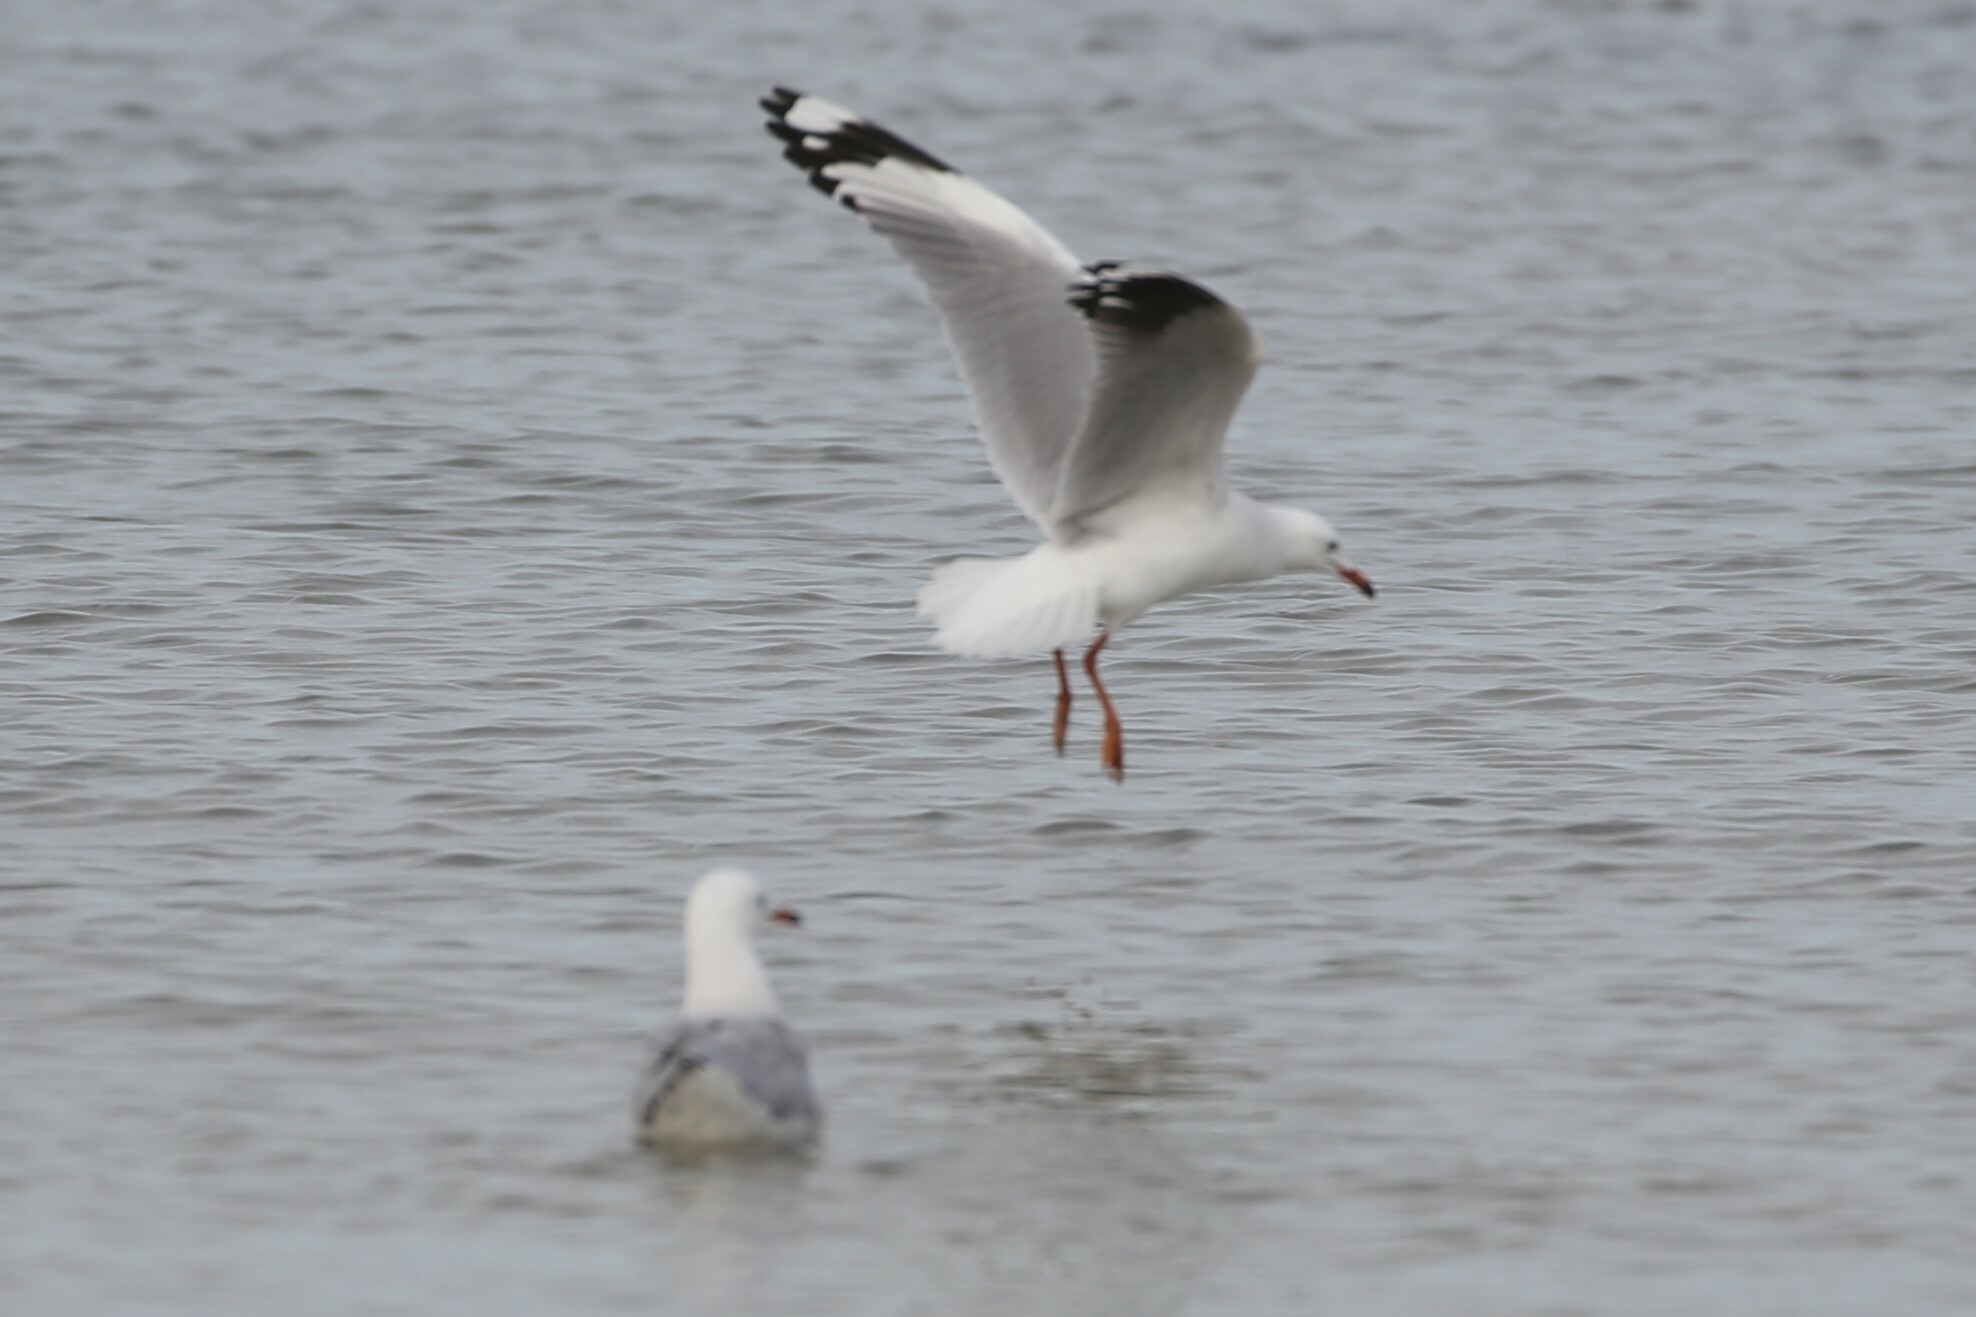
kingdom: Animalia
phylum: Chordata
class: Aves
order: Charadriiformes
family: Laridae
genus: Chroicocephalus
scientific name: Chroicocephalus novaehollandiae
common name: Silver gull
